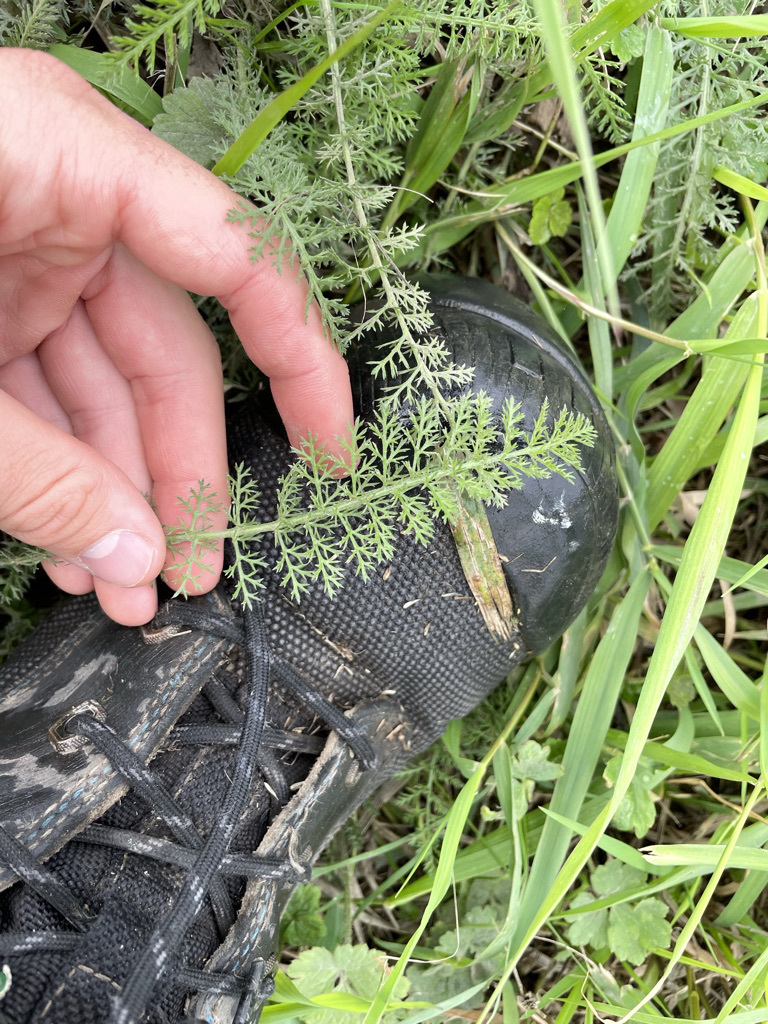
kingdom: Plantae
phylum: Tracheophyta
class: Magnoliopsida
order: Asterales
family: Asteraceae
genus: Achillea
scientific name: Achillea millefolium
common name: Yarrow
